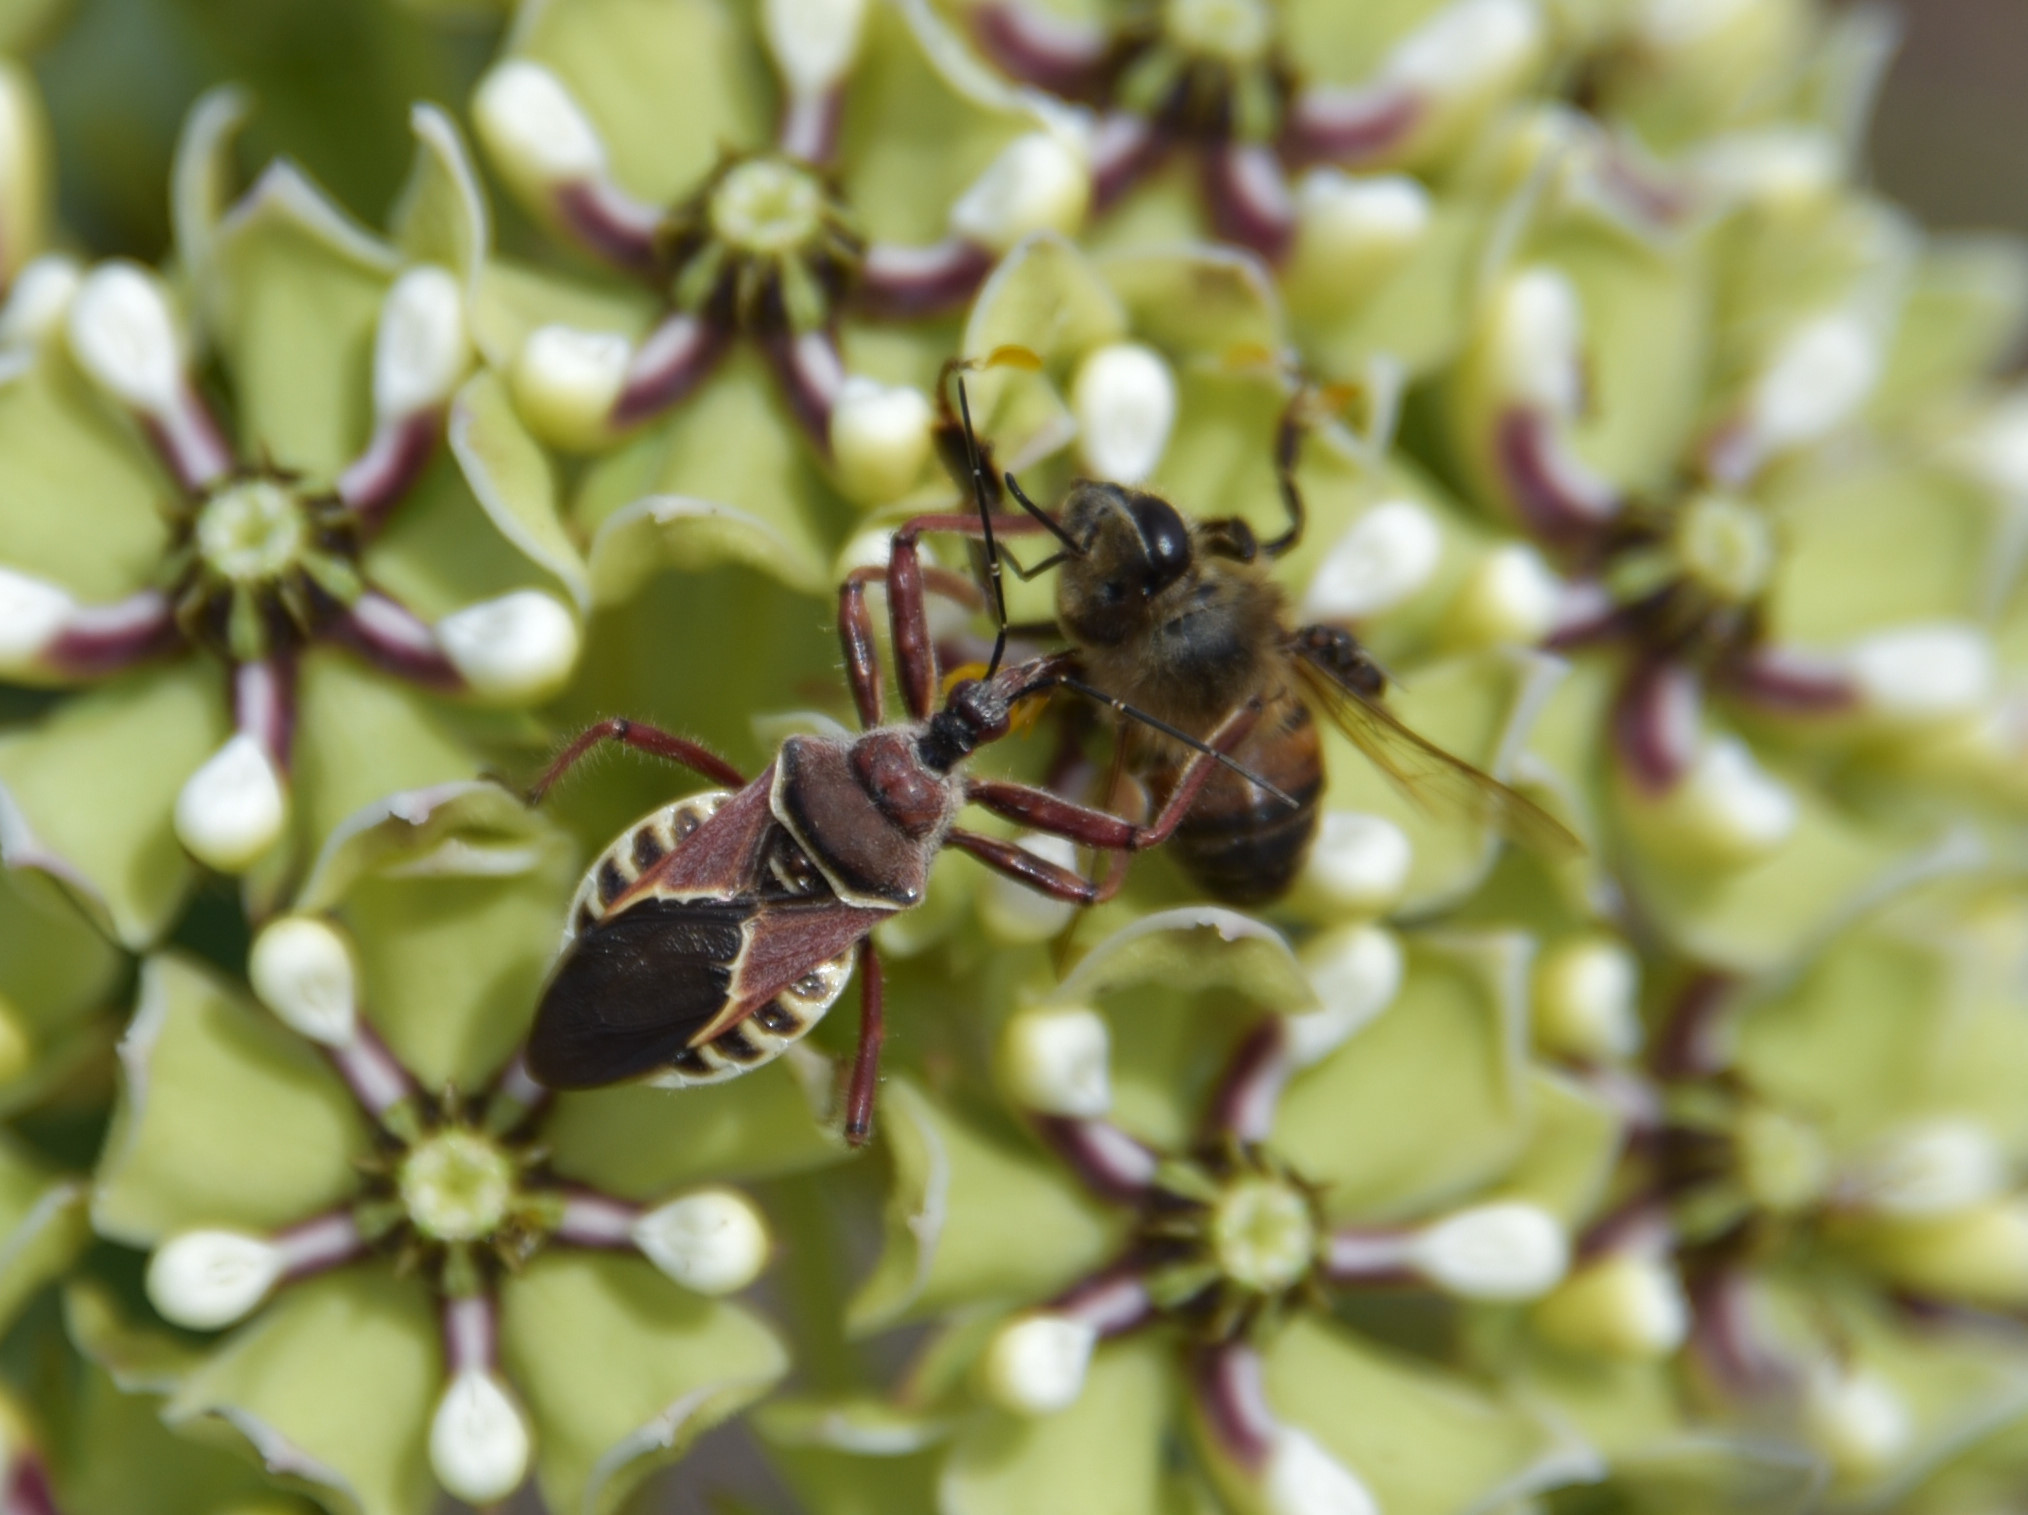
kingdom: Animalia
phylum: Arthropoda
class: Insecta
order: Hemiptera
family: Reduviidae
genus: Apiomerus
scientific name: Apiomerus spissipes
